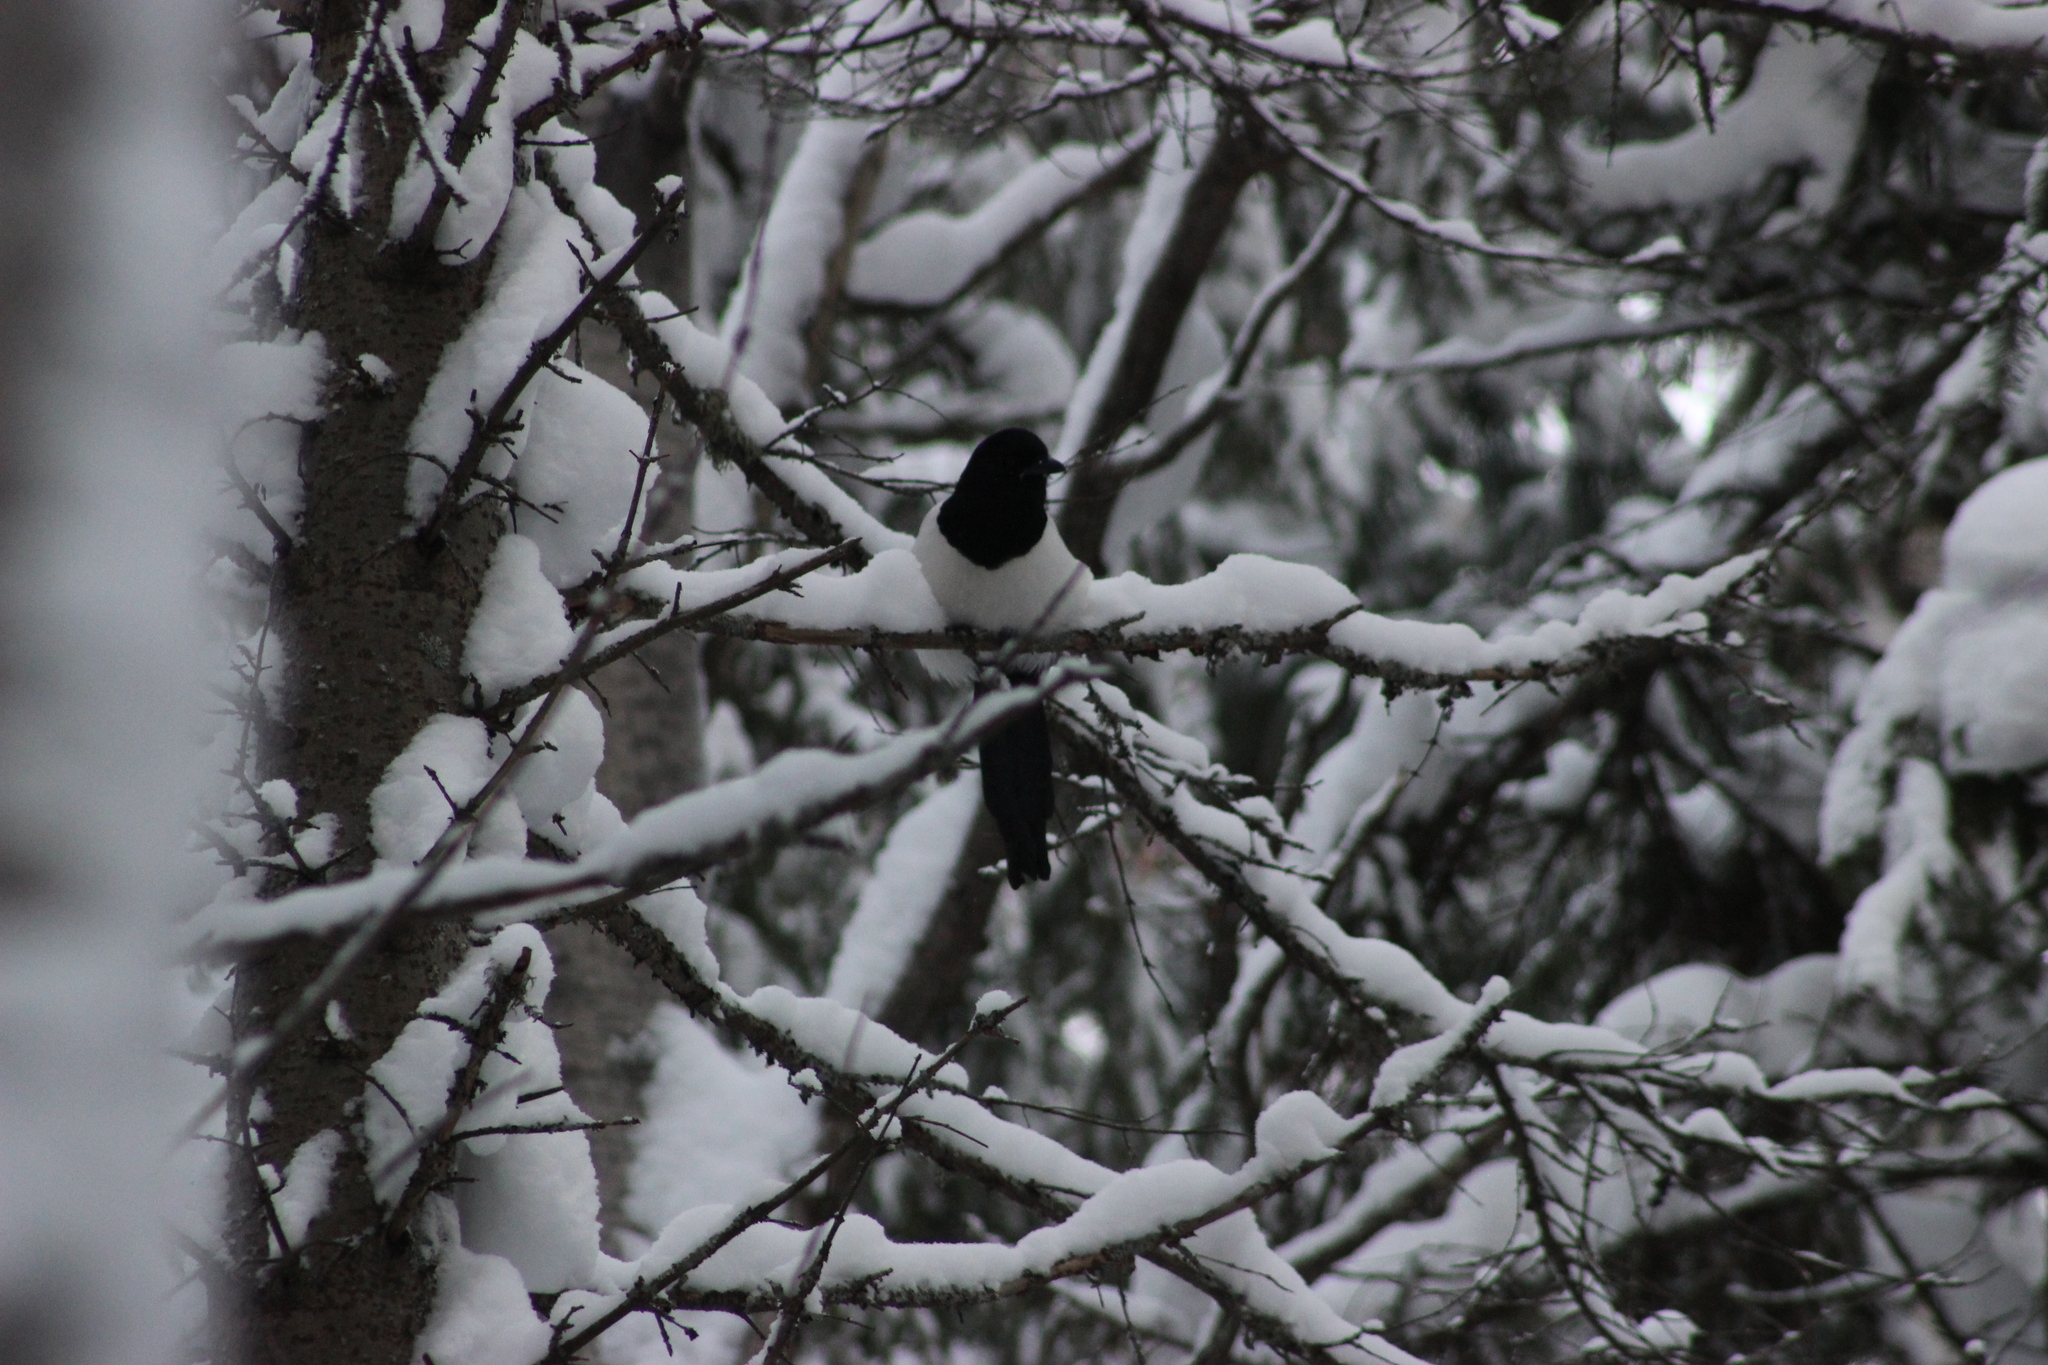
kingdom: Animalia
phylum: Chordata
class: Aves
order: Passeriformes
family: Corvidae
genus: Pica
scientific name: Pica pica
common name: Eurasian magpie
